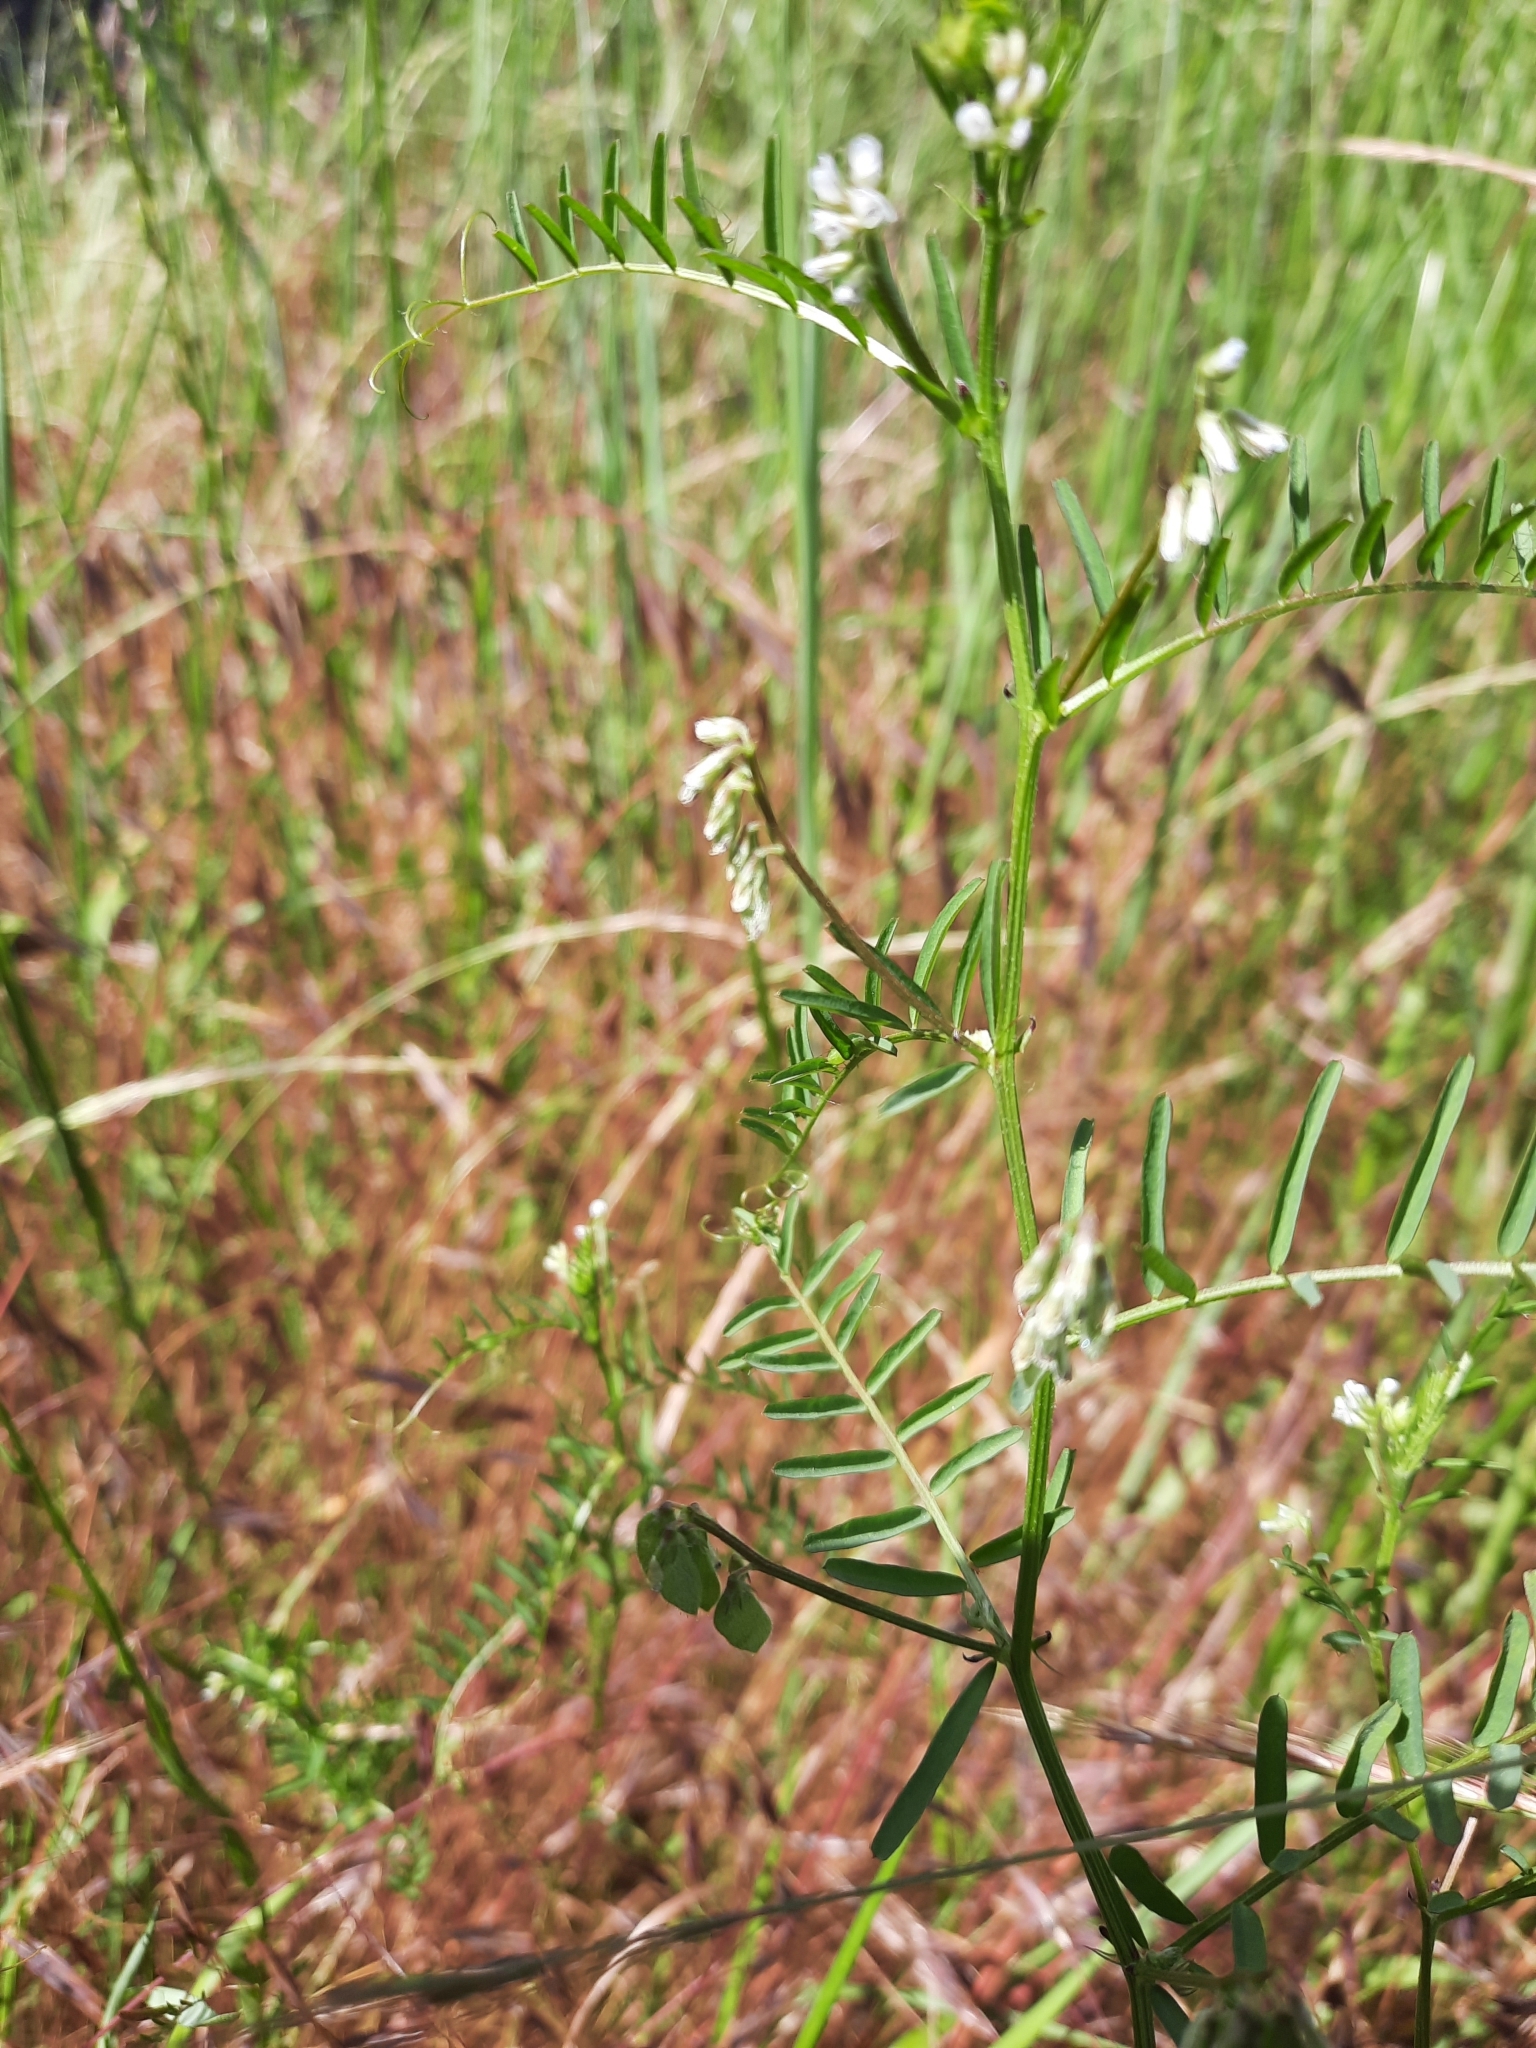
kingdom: Plantae
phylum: Tracheophyta
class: Magnoliopsida
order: Fabales
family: Fabaceae
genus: Vicia
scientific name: Vicia hirsuta
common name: Tiny vetch
